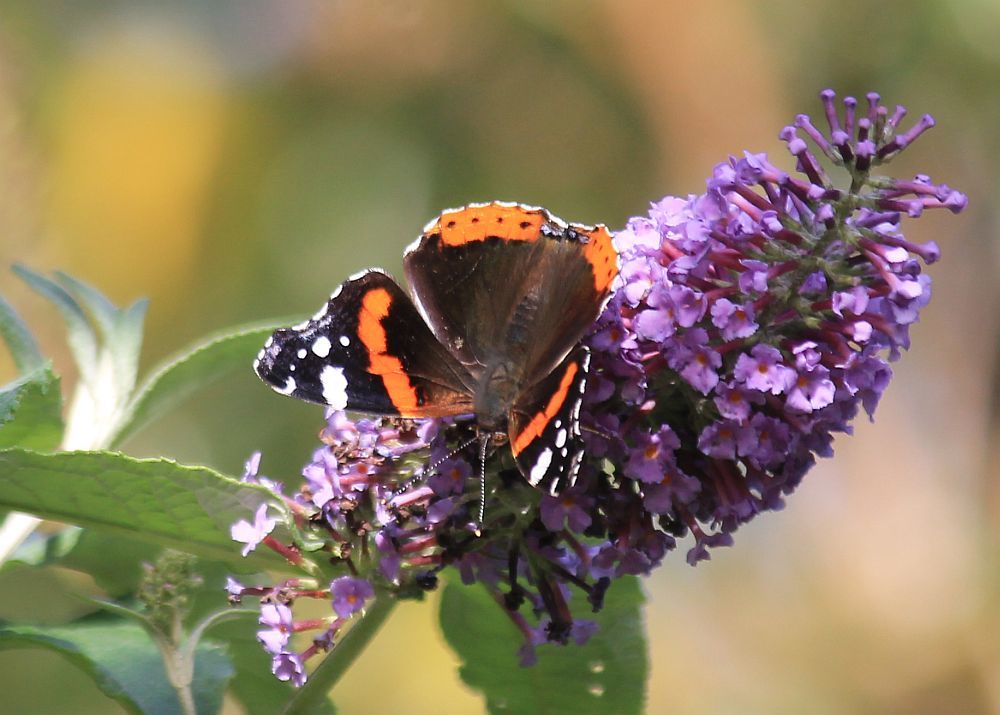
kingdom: Animalia
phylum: Arthropoda
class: Insecta
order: Lepidoptera
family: Nymphalidae
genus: Vanessa
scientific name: Vanessa atalanta
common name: Red admiral
